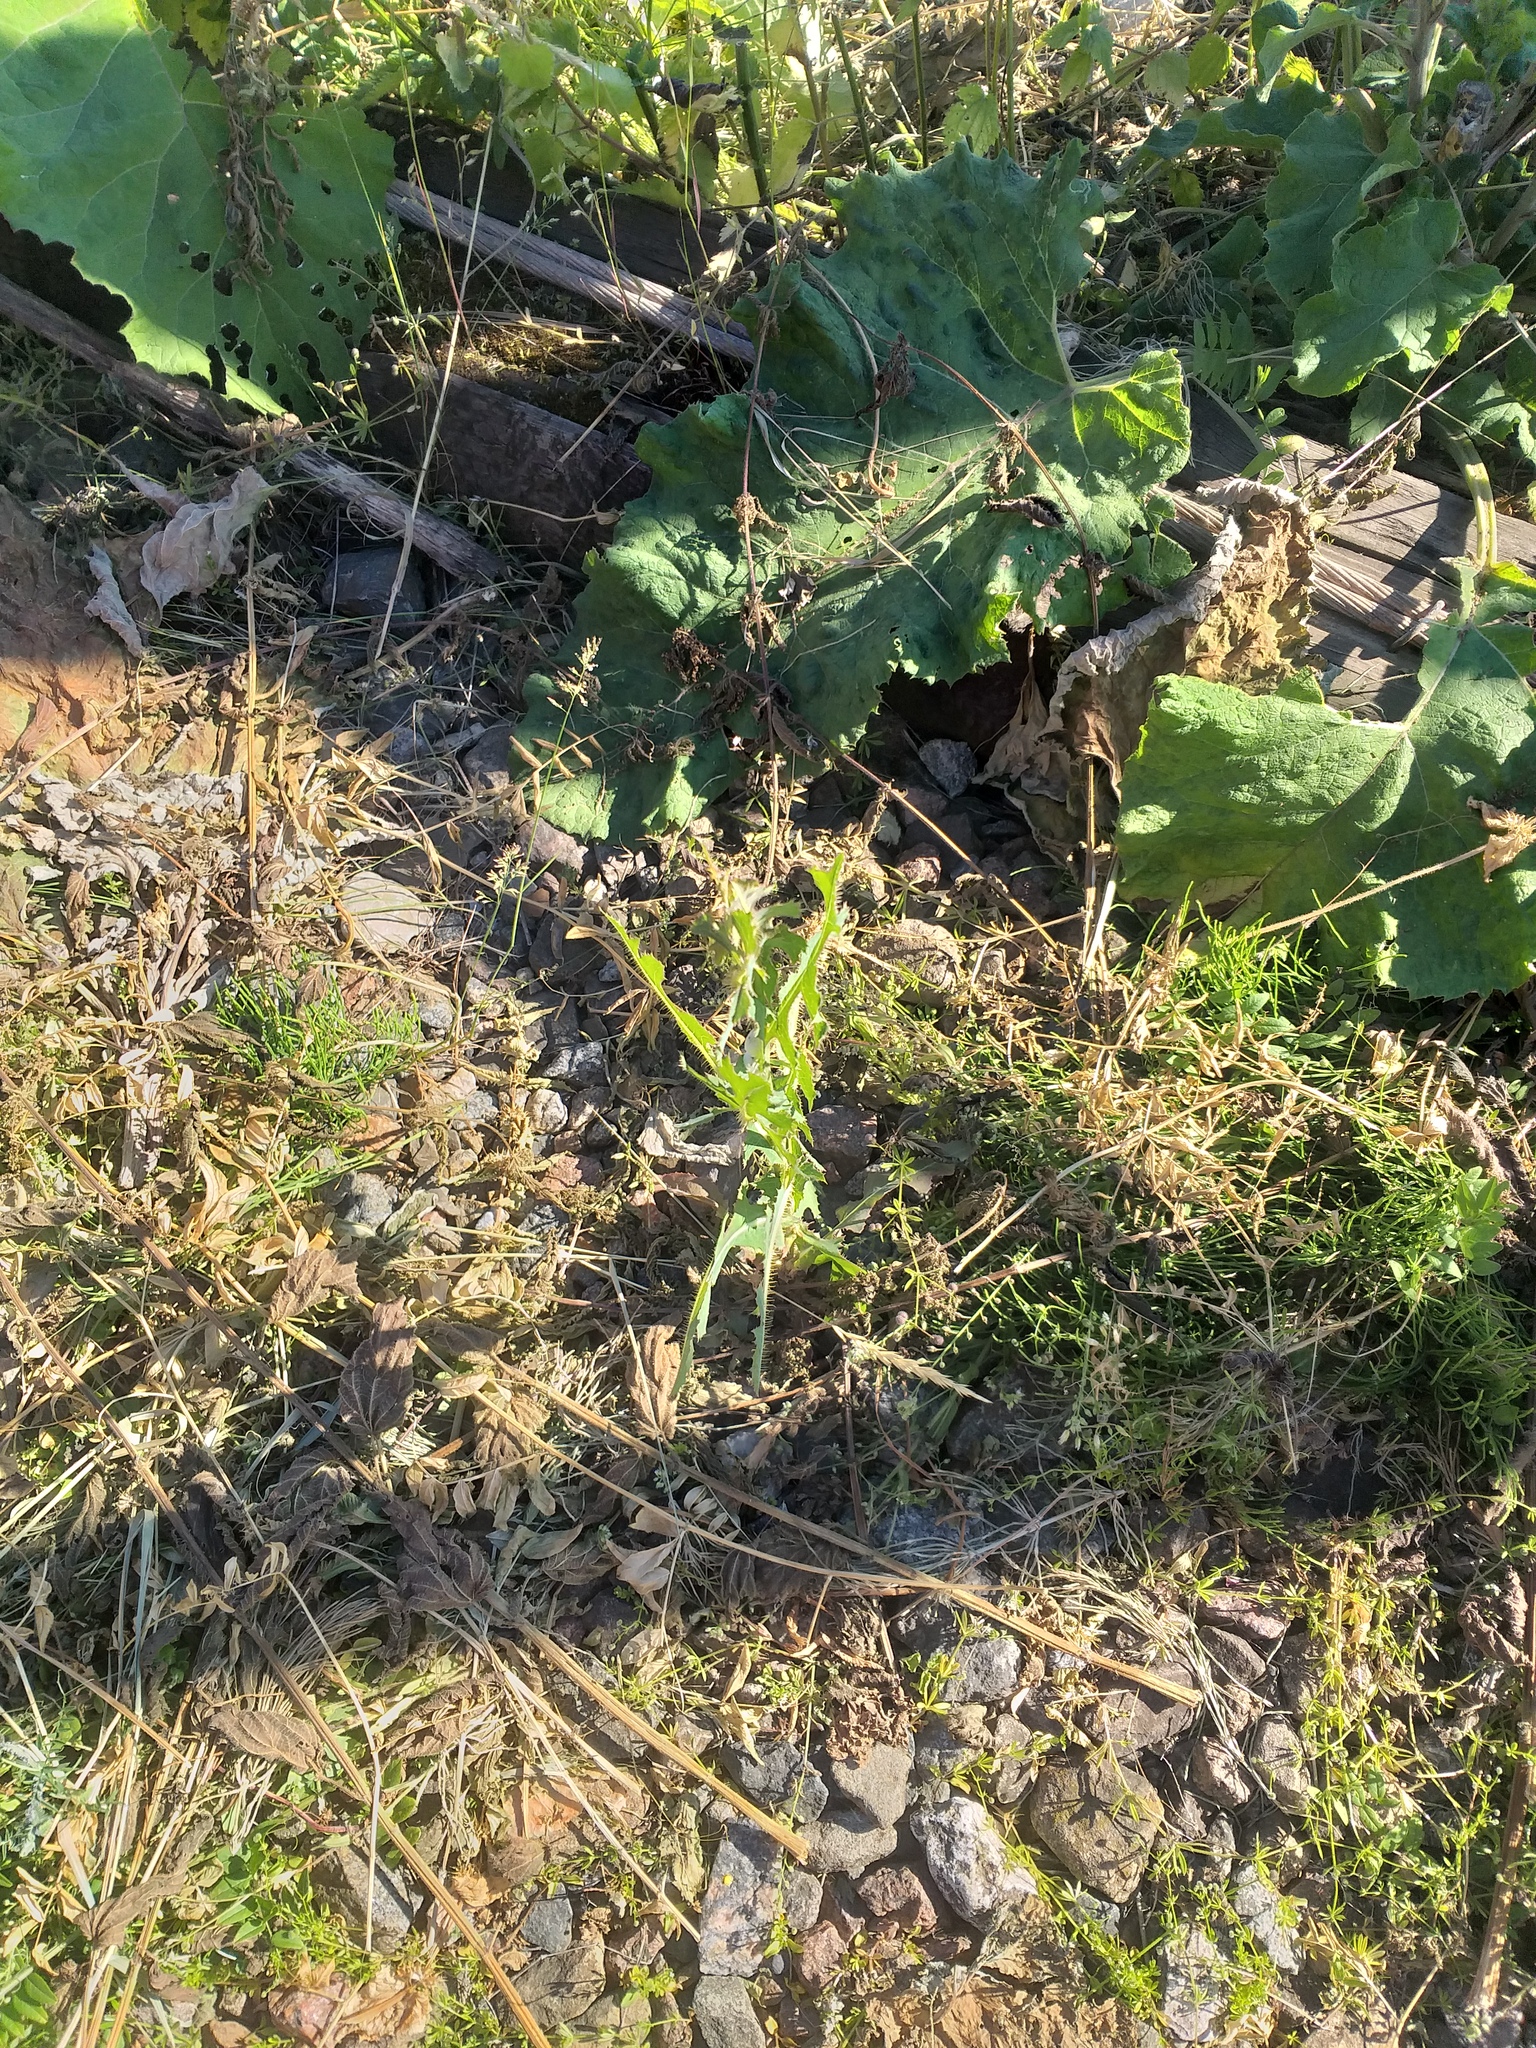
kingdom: Plantae
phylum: Tracheophyta
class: Magnoliopsida
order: Asterales
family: Asteraceae
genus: Lactuca
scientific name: Lactuca serriola
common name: Prickly lettuce
